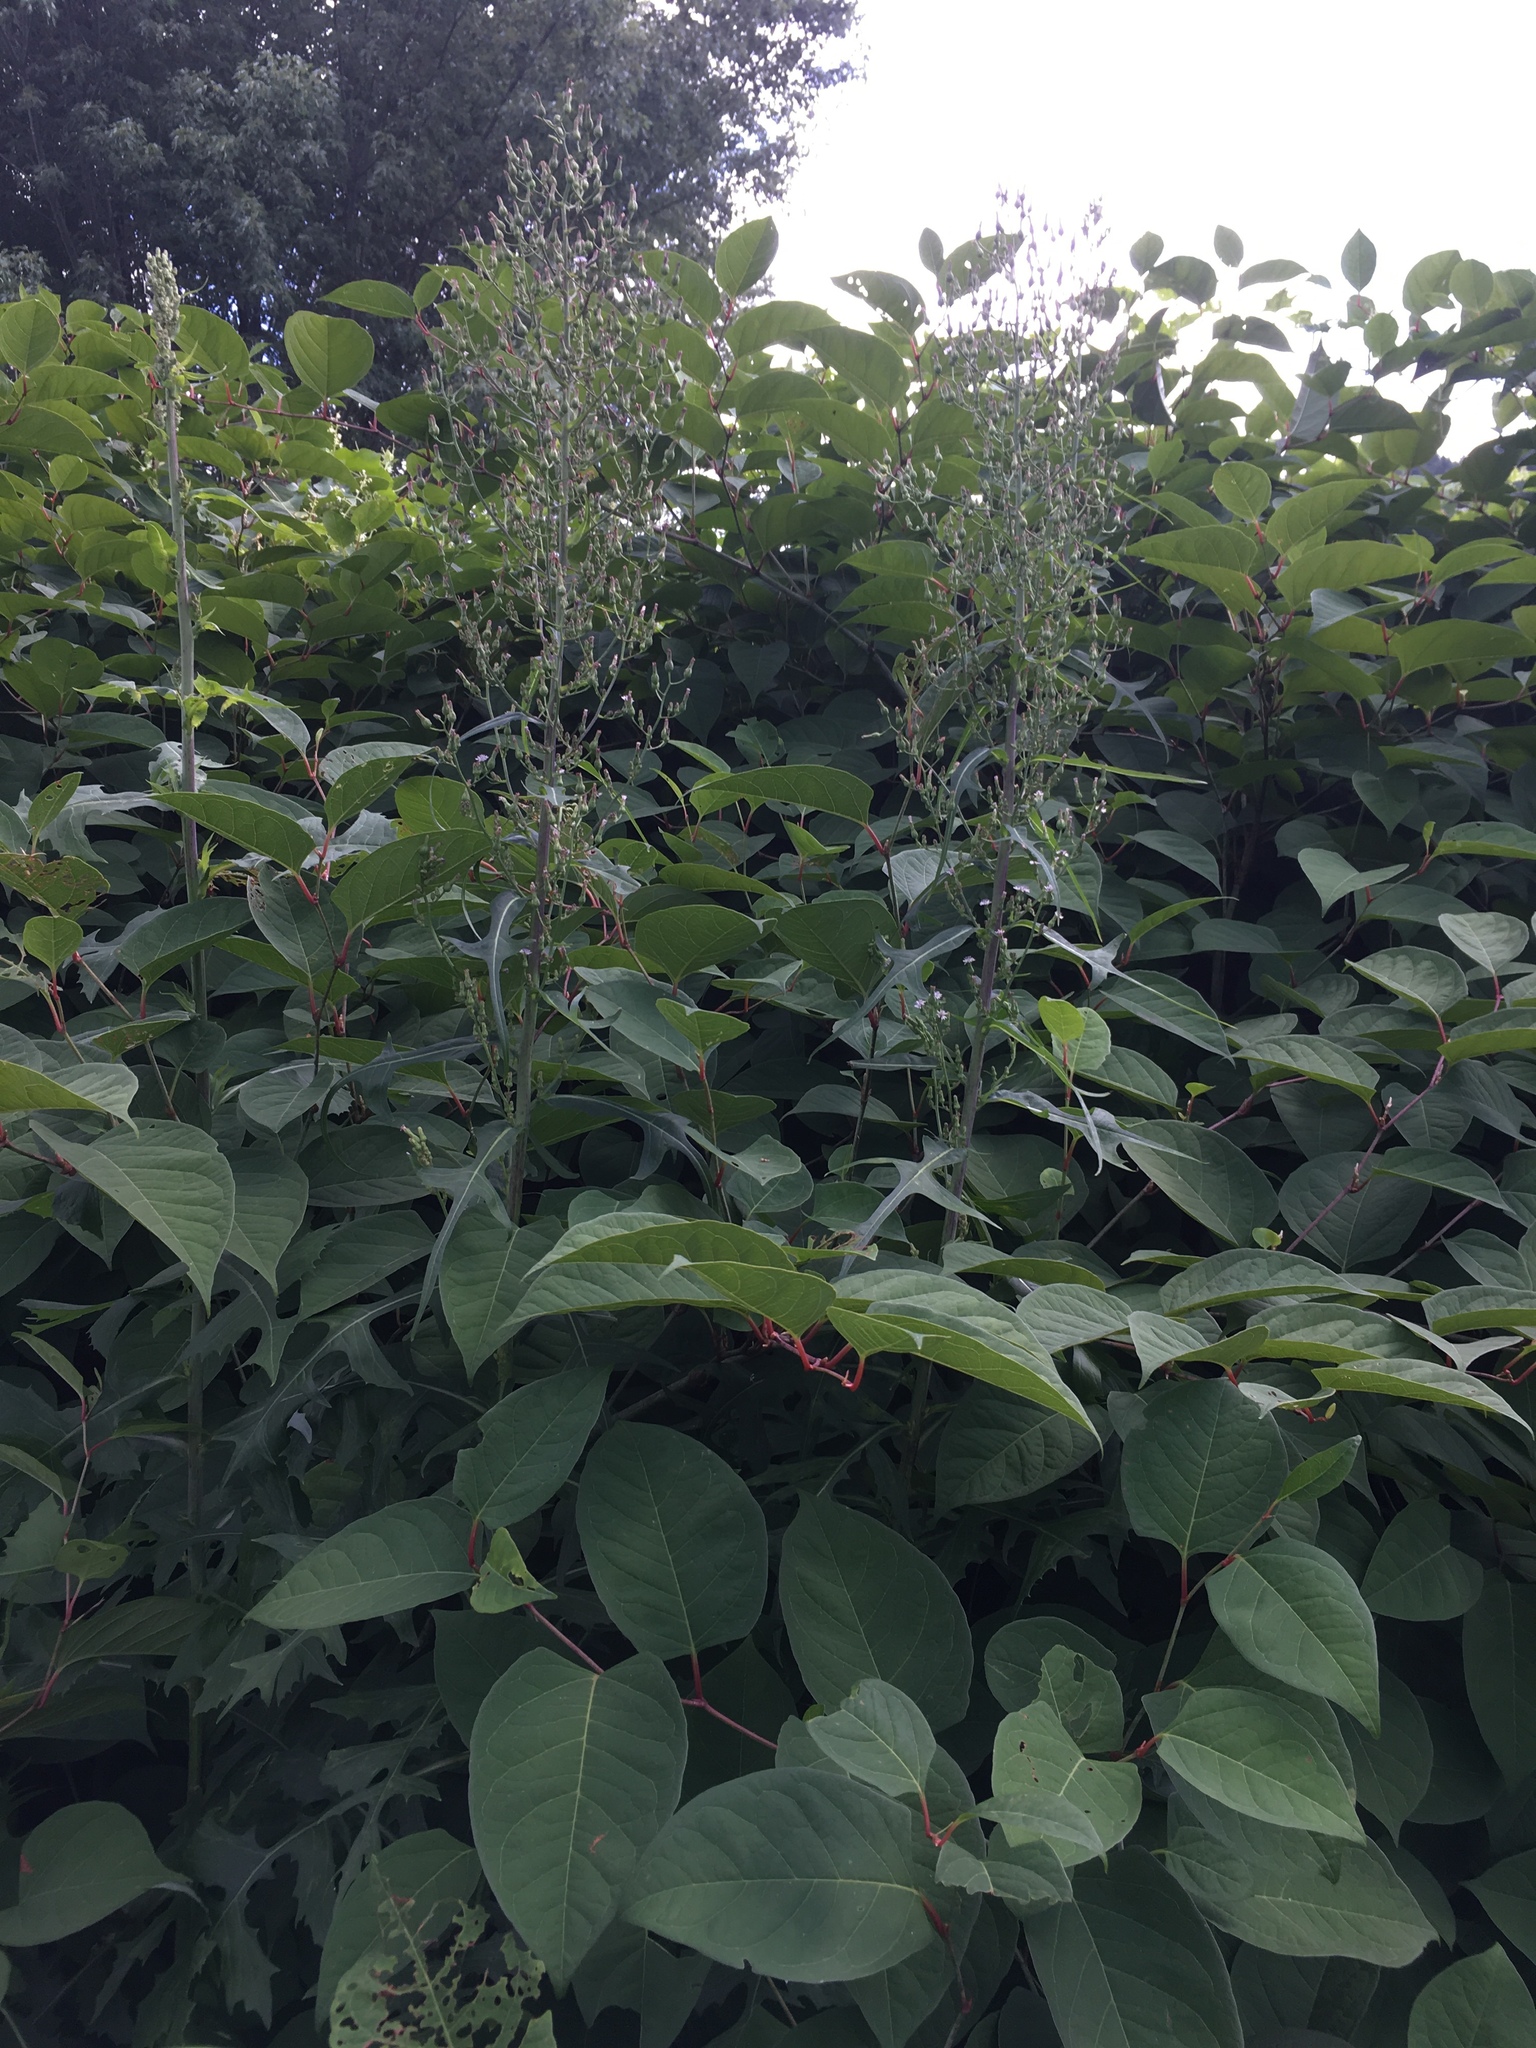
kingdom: Plantae
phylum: Tracheophyta
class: Magnoliopsida
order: Asterales
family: Asteraceae
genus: Lactuca
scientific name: Lactuca biennis
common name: Blue wood lettuce
